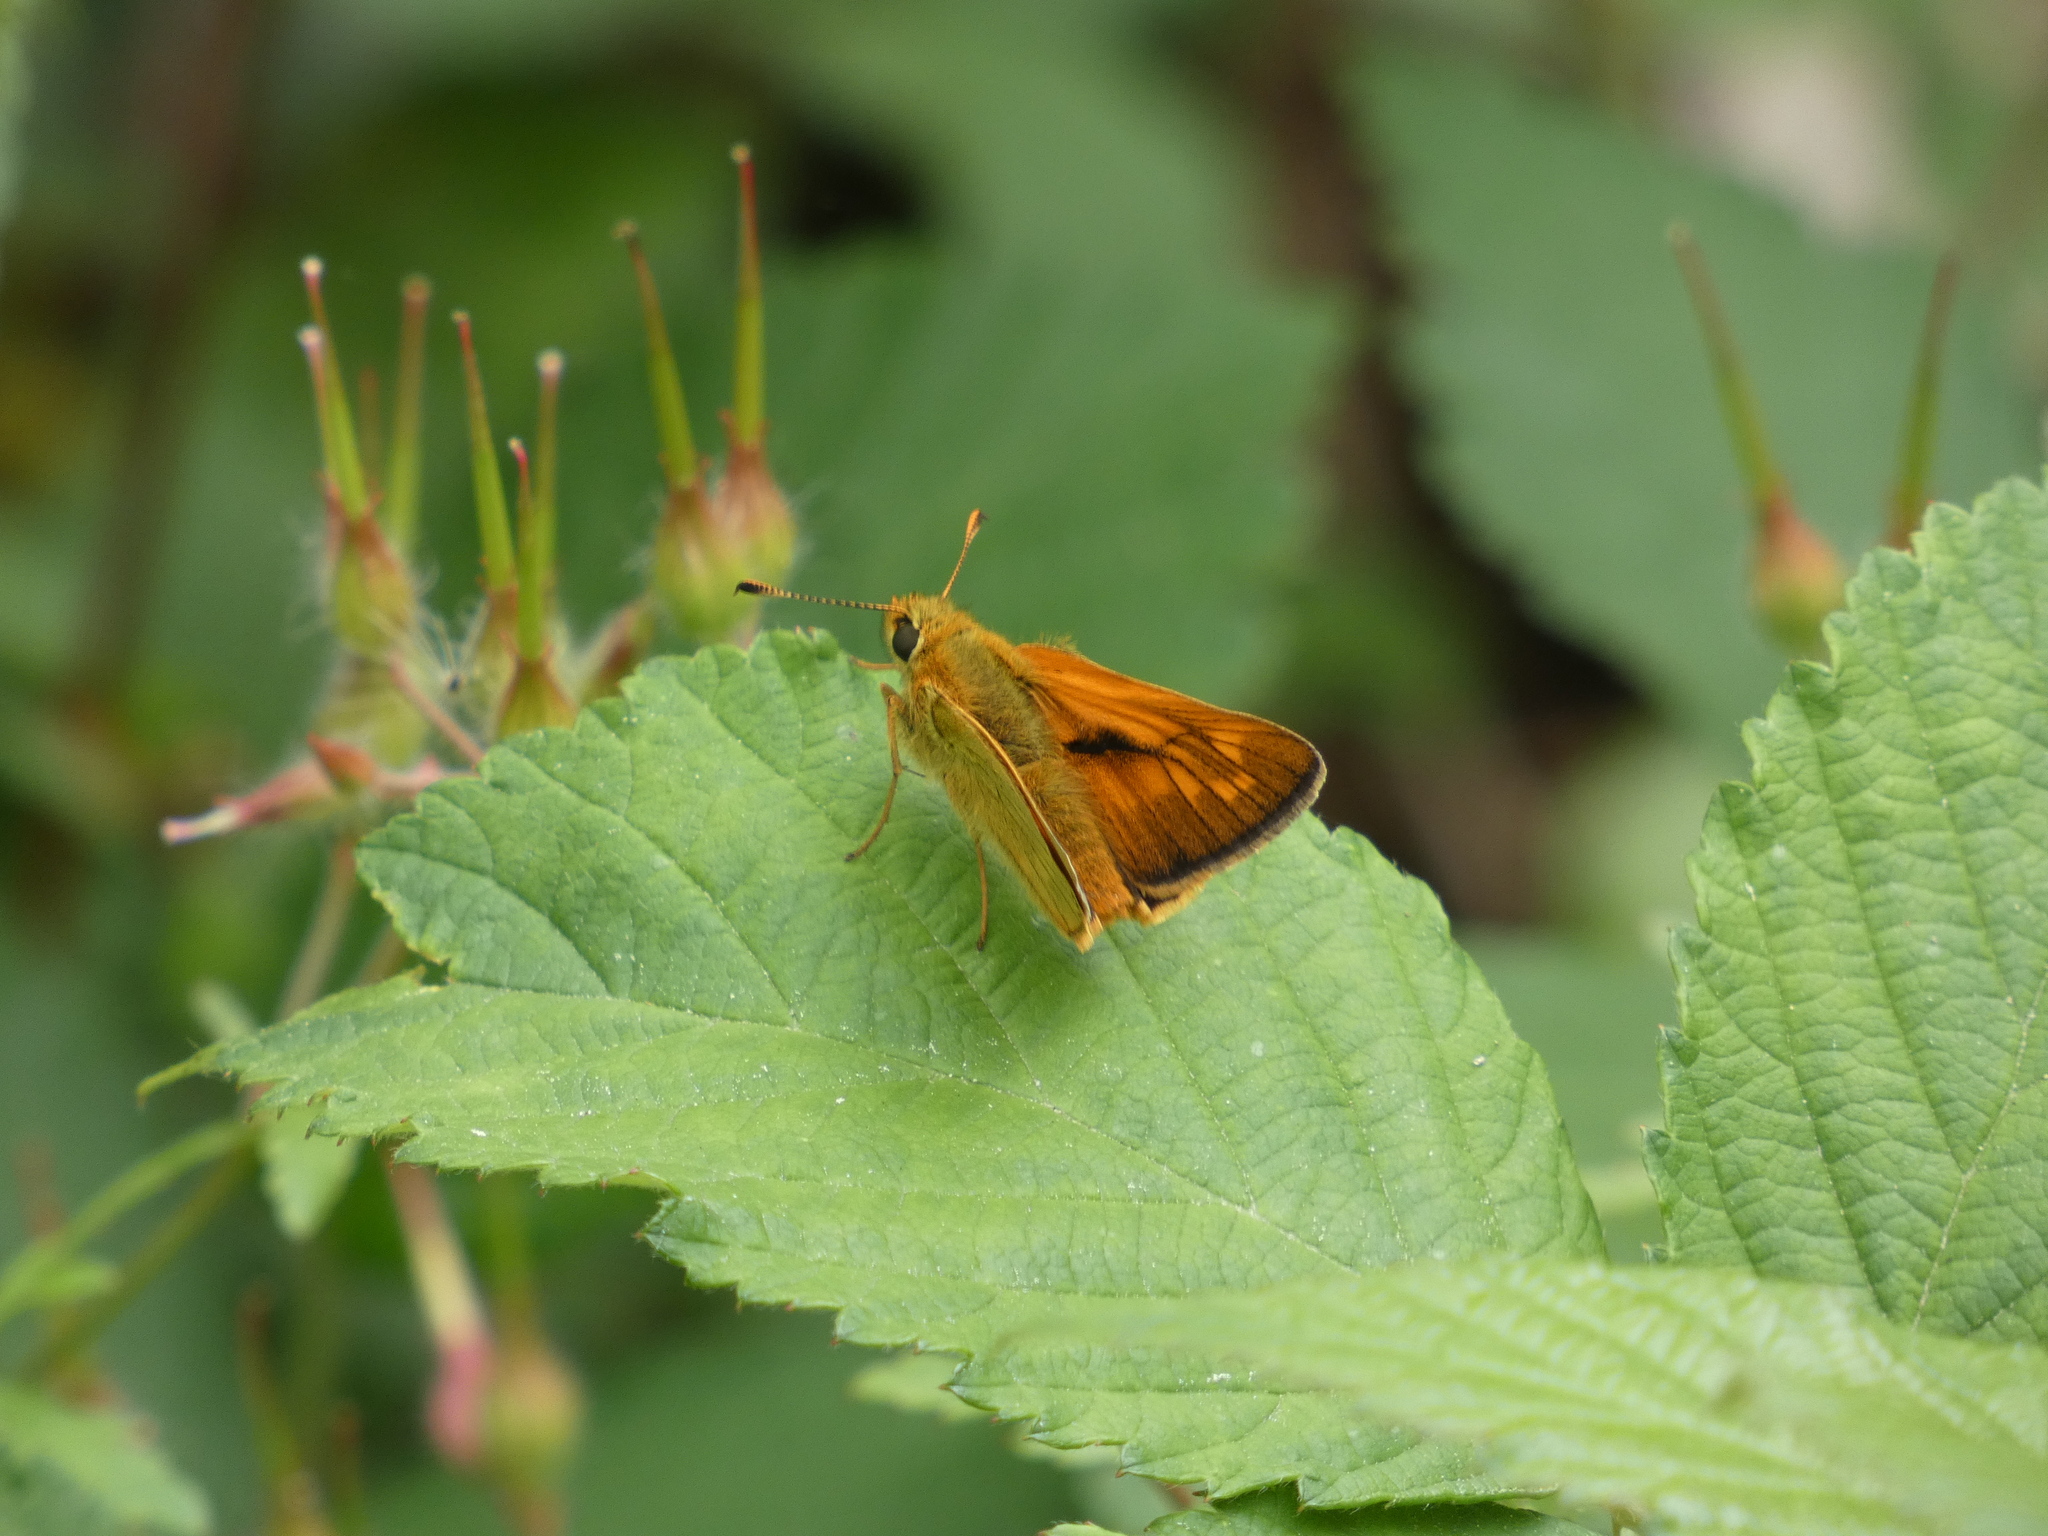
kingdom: Animalia
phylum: Arthropoda
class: Insecta
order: Lepidoptera
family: Hesperiidae
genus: Ochlodes
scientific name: Ochlodes venata
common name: Large skipper
